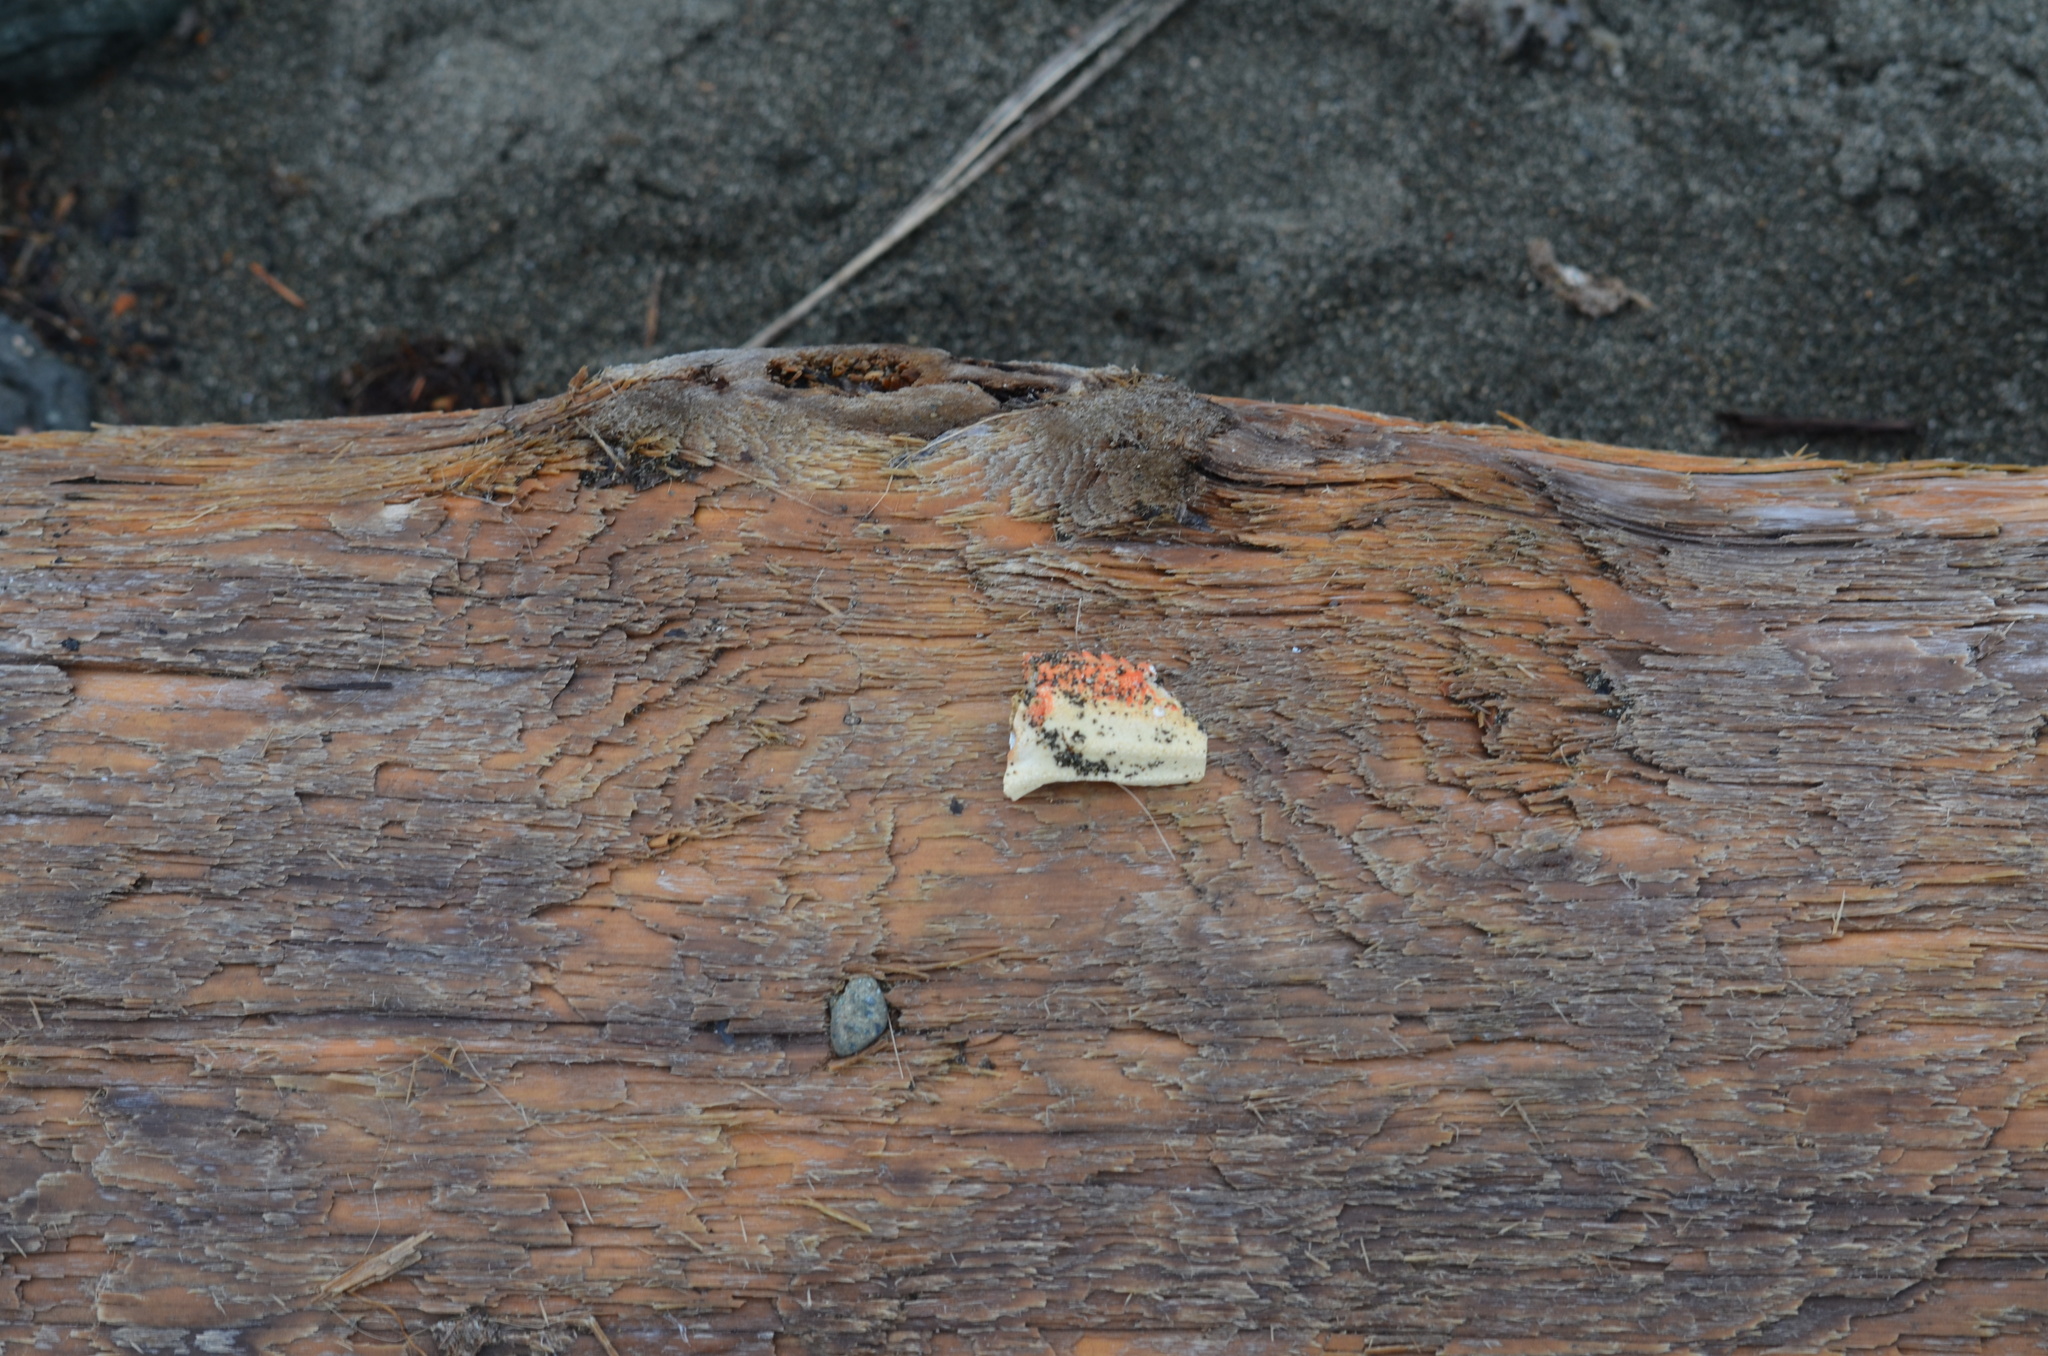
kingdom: Animalia
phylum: Arthropoda
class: Malacostraca
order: Decapoda
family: Cancridae
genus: Metacarcinus
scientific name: Metacarcinus magister
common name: Californian crab
